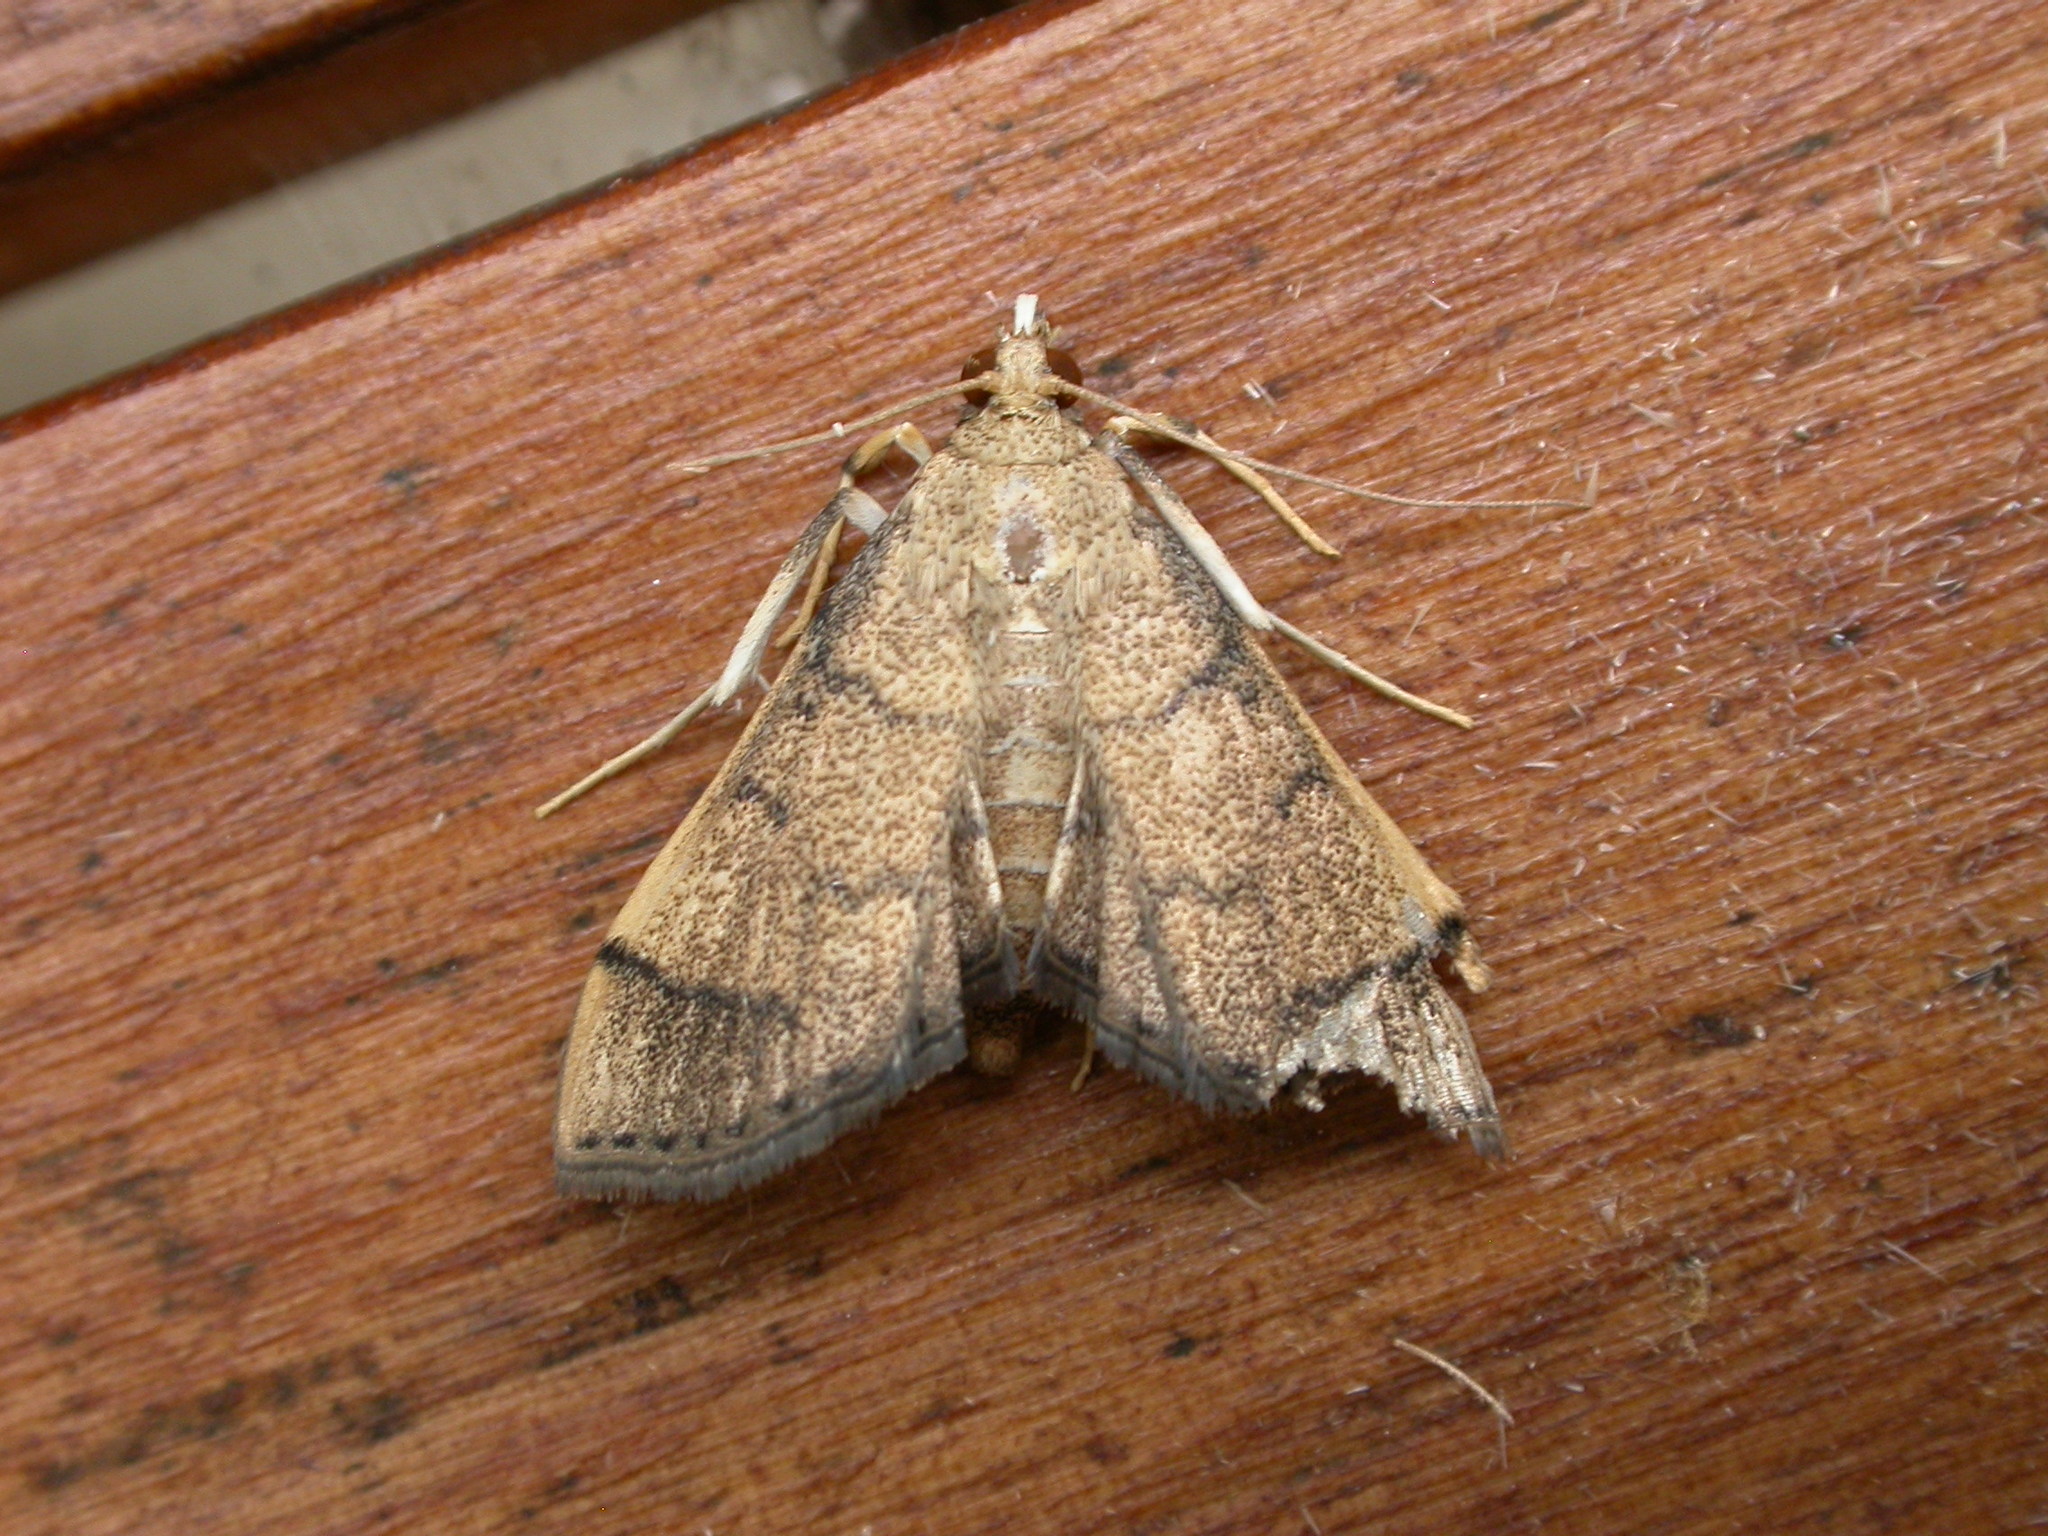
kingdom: Animalia
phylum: Arthropoda
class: Insecta
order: Lepidoptera
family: Crambidae
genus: Omiodes
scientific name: Omiodes indicata
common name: Bean-leaf webworm moth
